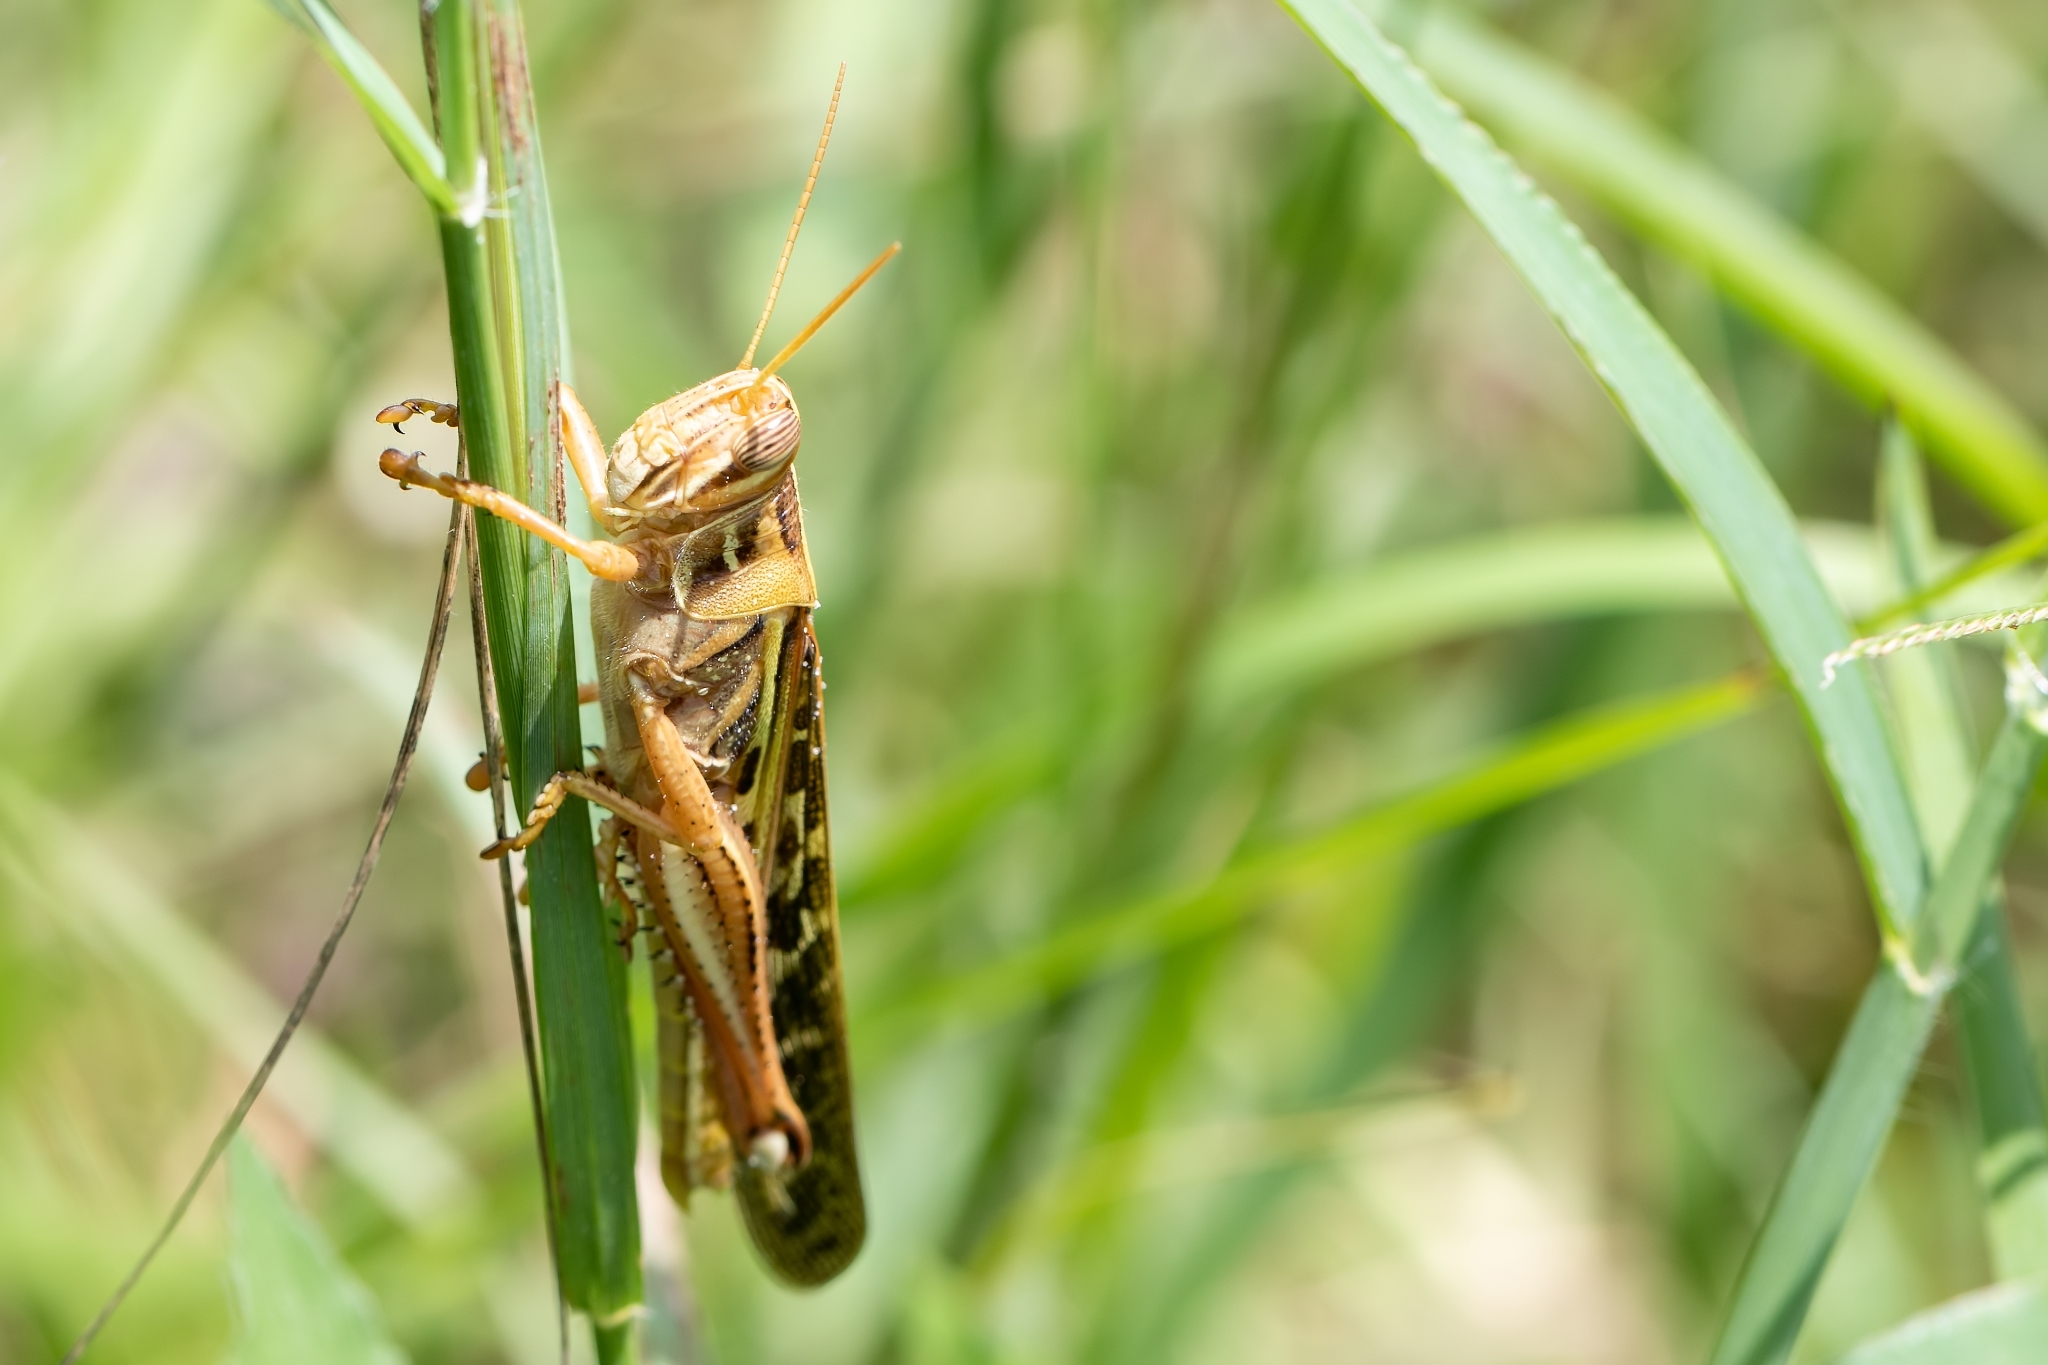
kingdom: Animalia
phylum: Arthropoda
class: Insecta
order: Orthoptera
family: Acrididae
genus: Schistocerca
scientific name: Schistocerca americana
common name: American bird locust
